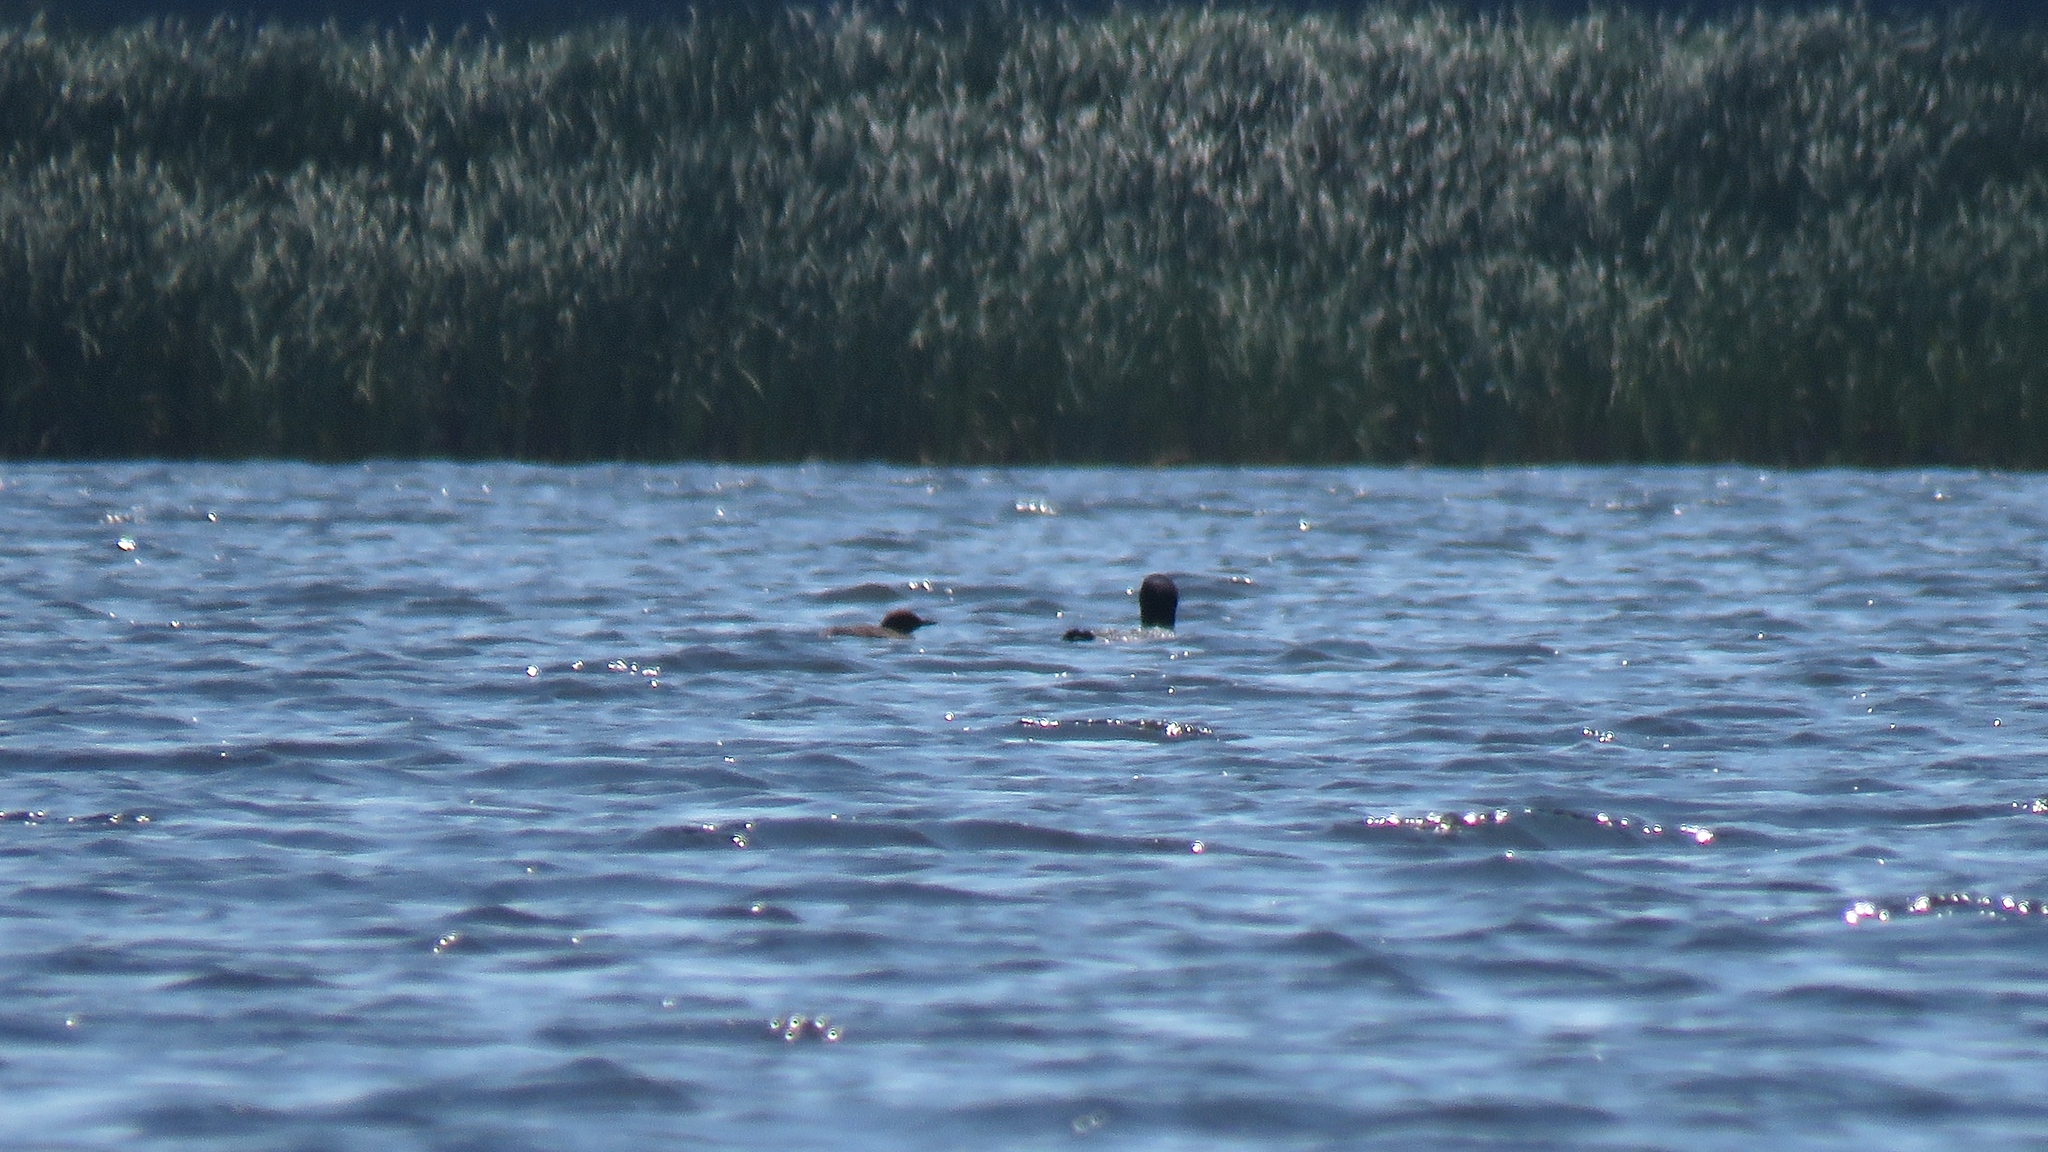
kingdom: Animalia
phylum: Chordata
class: Aves
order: Gaviiformes
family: Gaviidae
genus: Gavia
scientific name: Gavia immer
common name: Common loon
